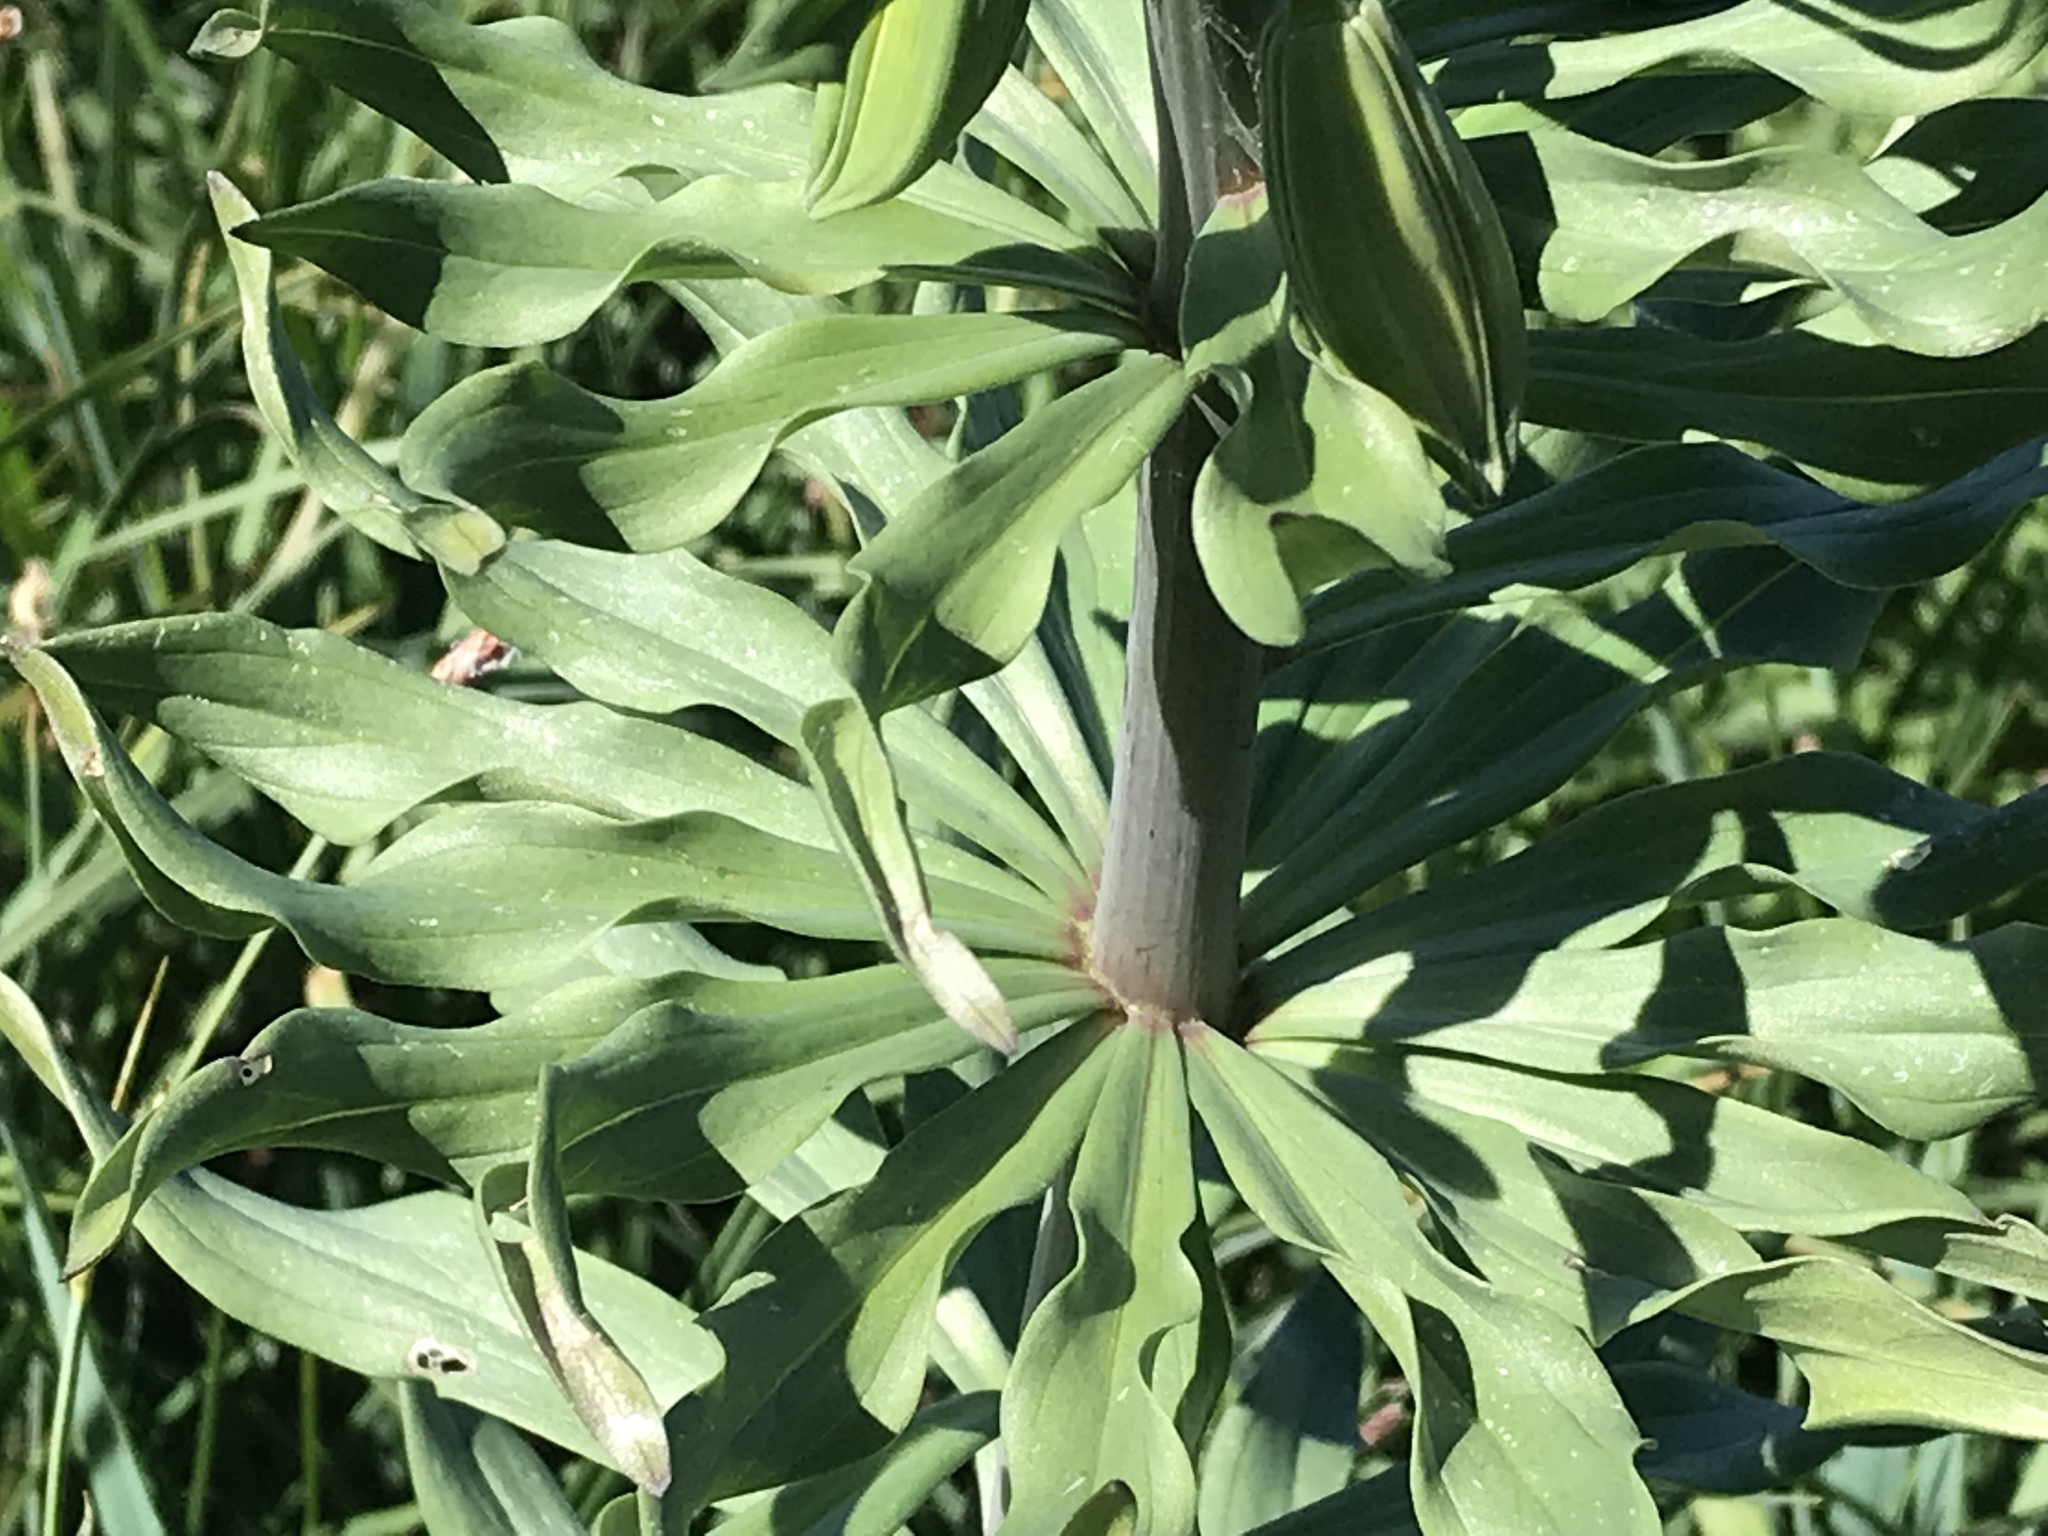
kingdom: Plantae
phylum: Tracheophyta
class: Liliopsida
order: Liliales
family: Liliaceae
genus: Lilium
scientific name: Lilium columbianum
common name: Columbia lily
